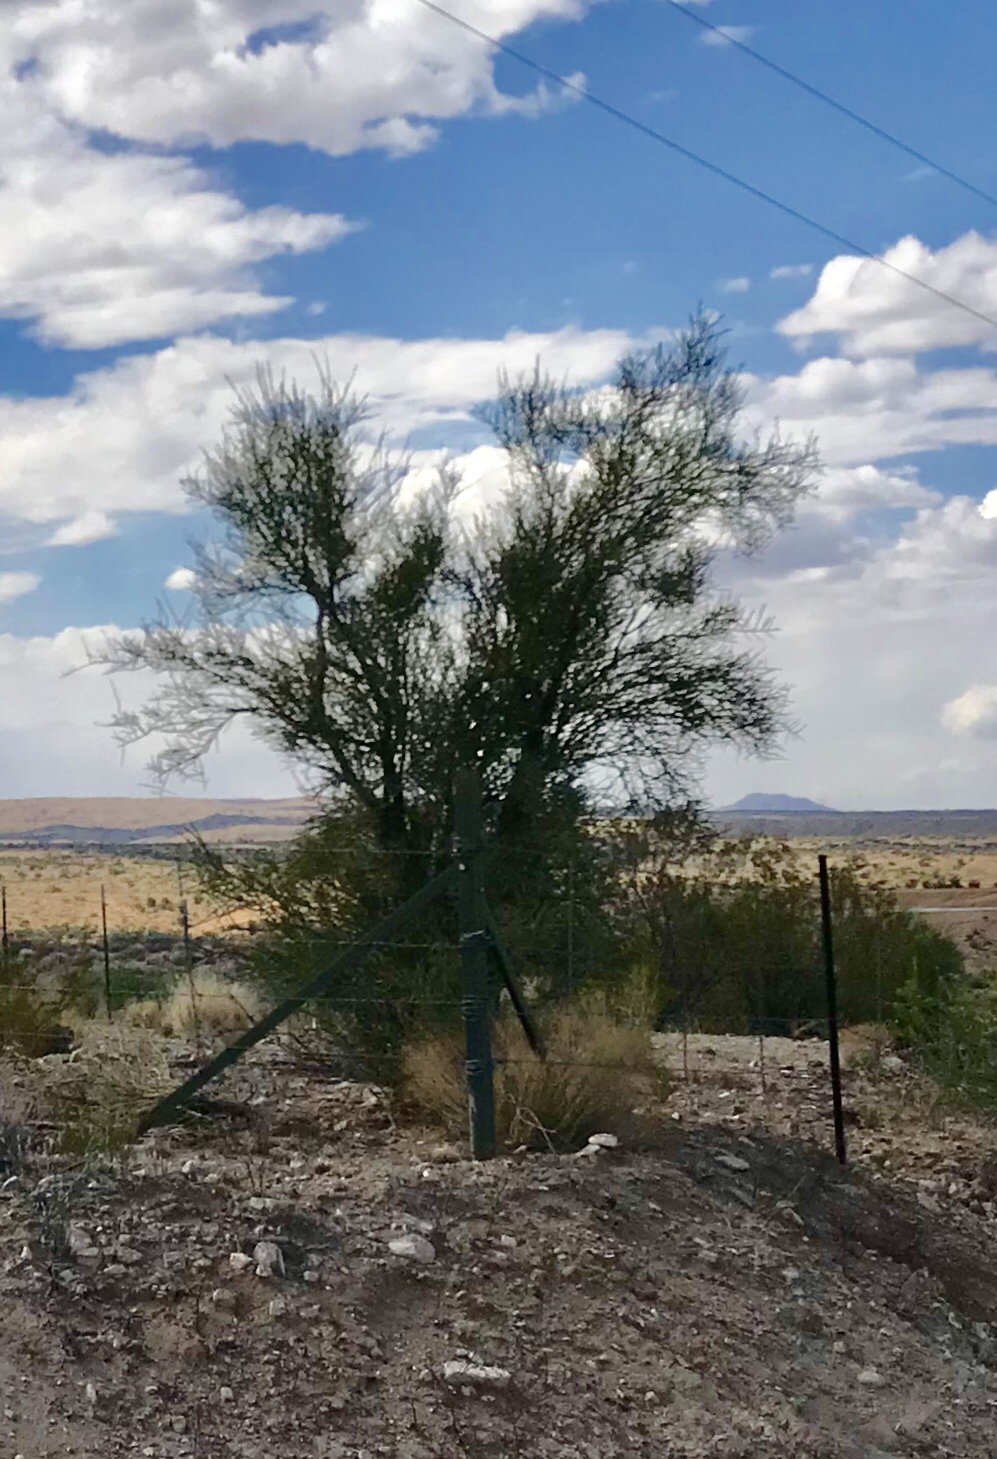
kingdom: Plantae
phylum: Tracheophyta
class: Magnoliopsida
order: Celastrales
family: Celastraceae
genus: Canotia
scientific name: Canotia holacantha
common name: Crucifixion thorns
